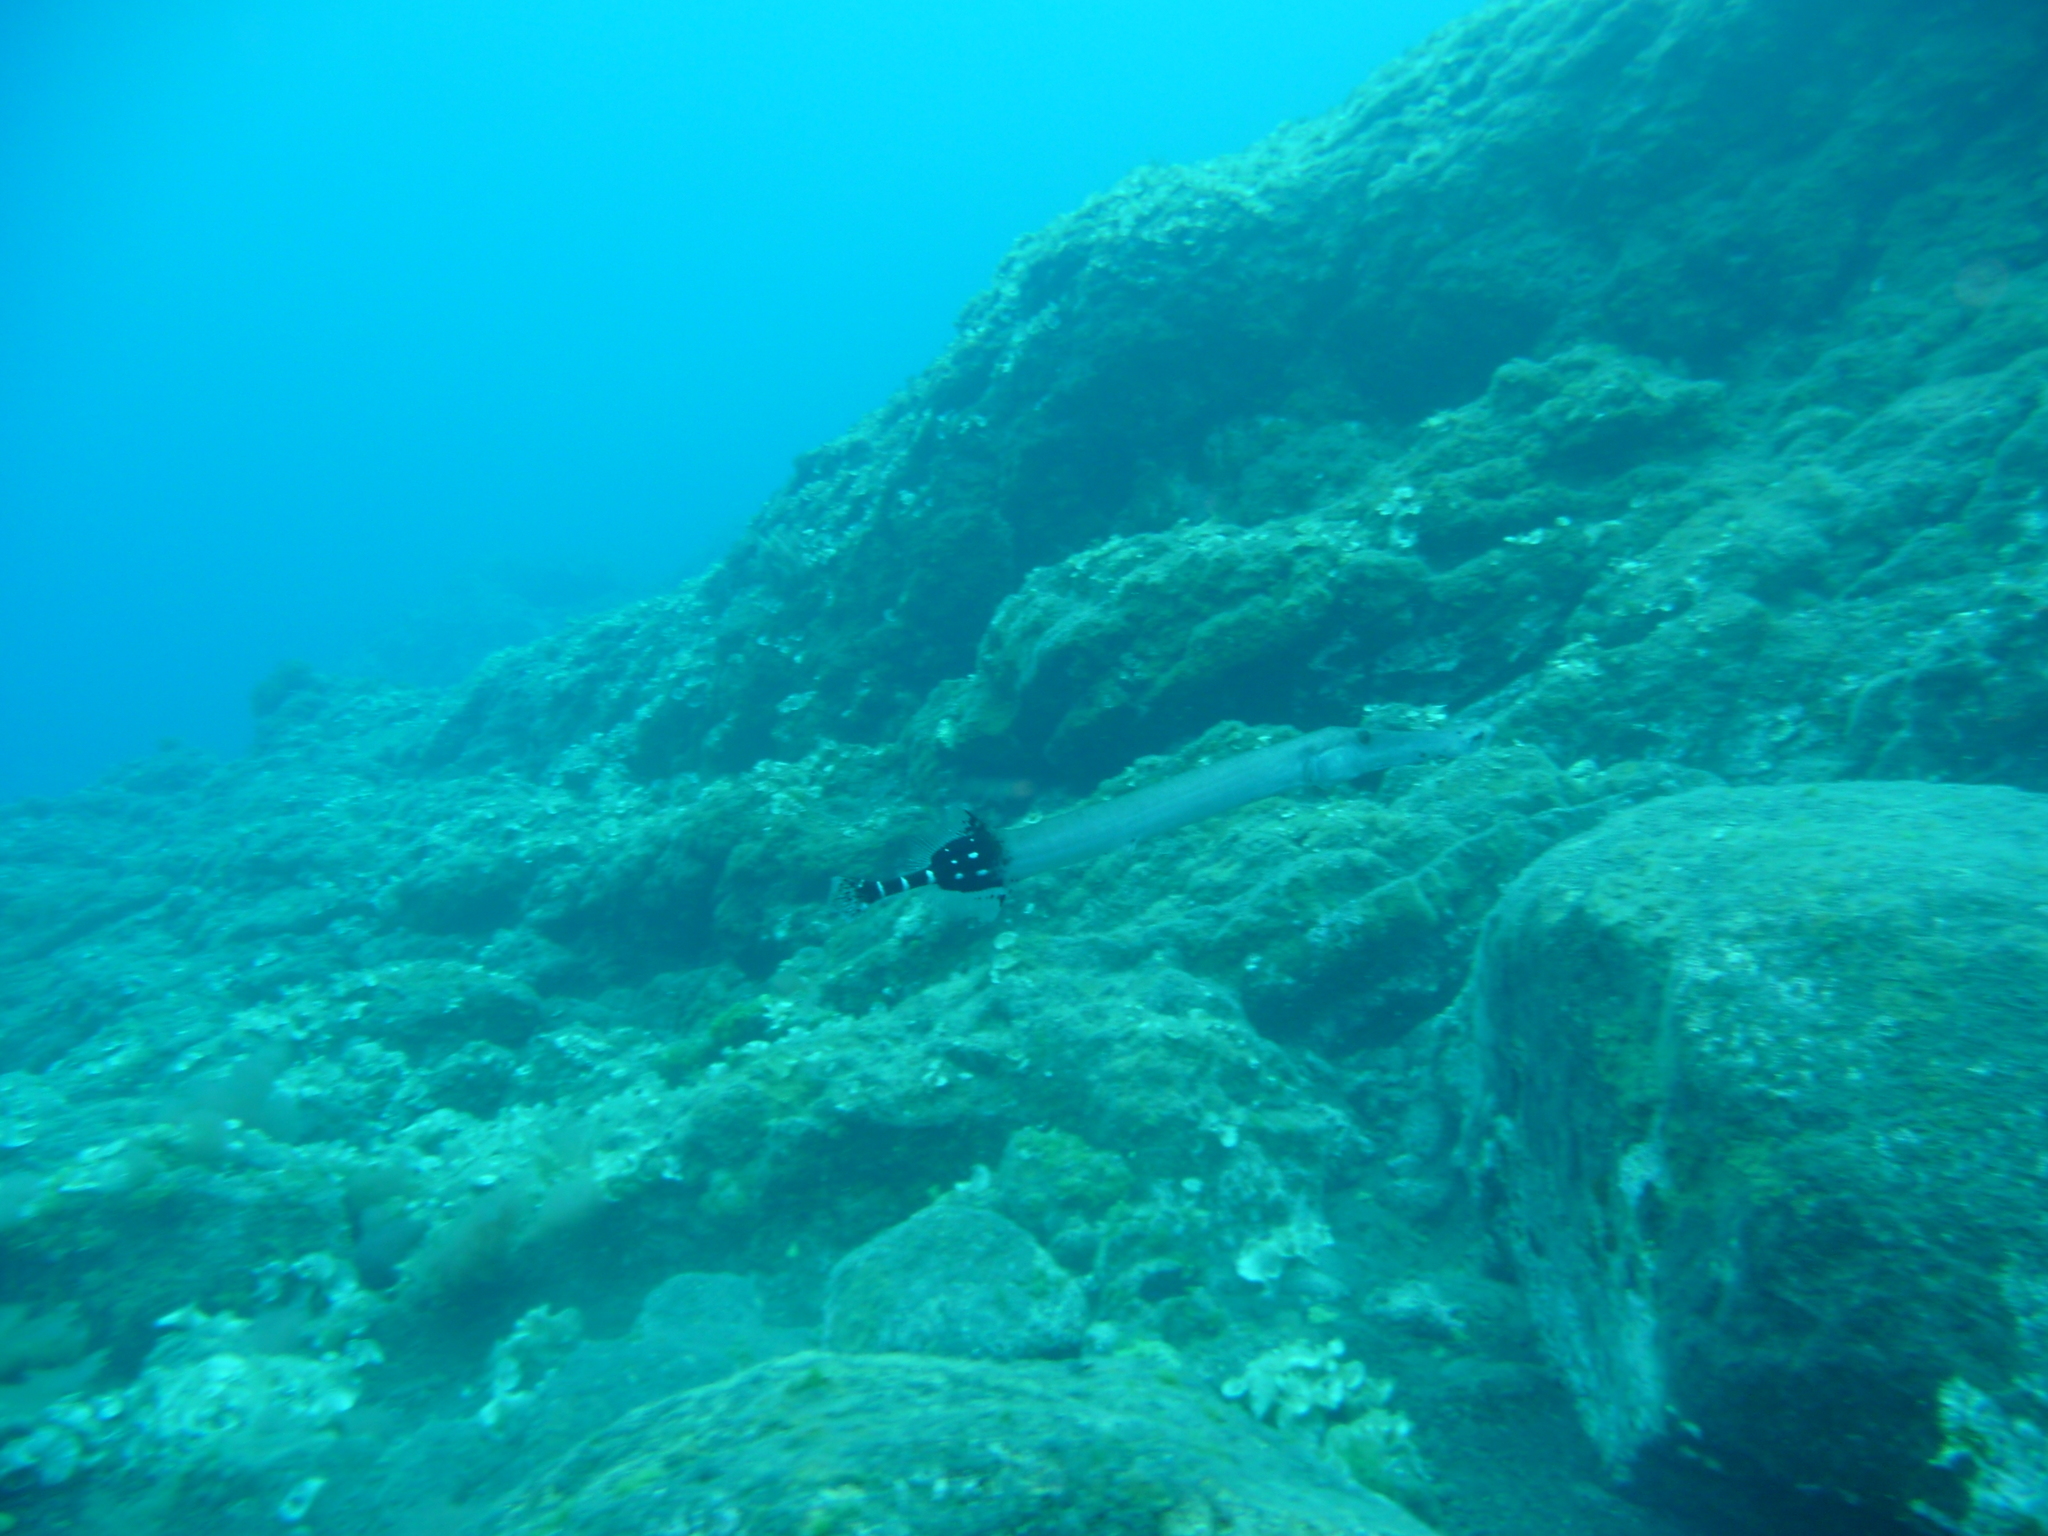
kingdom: Animalia
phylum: Chordata
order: Syngnathiformes
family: Aulostomidae
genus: Aulostomus
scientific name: Aulostomus strigosus
